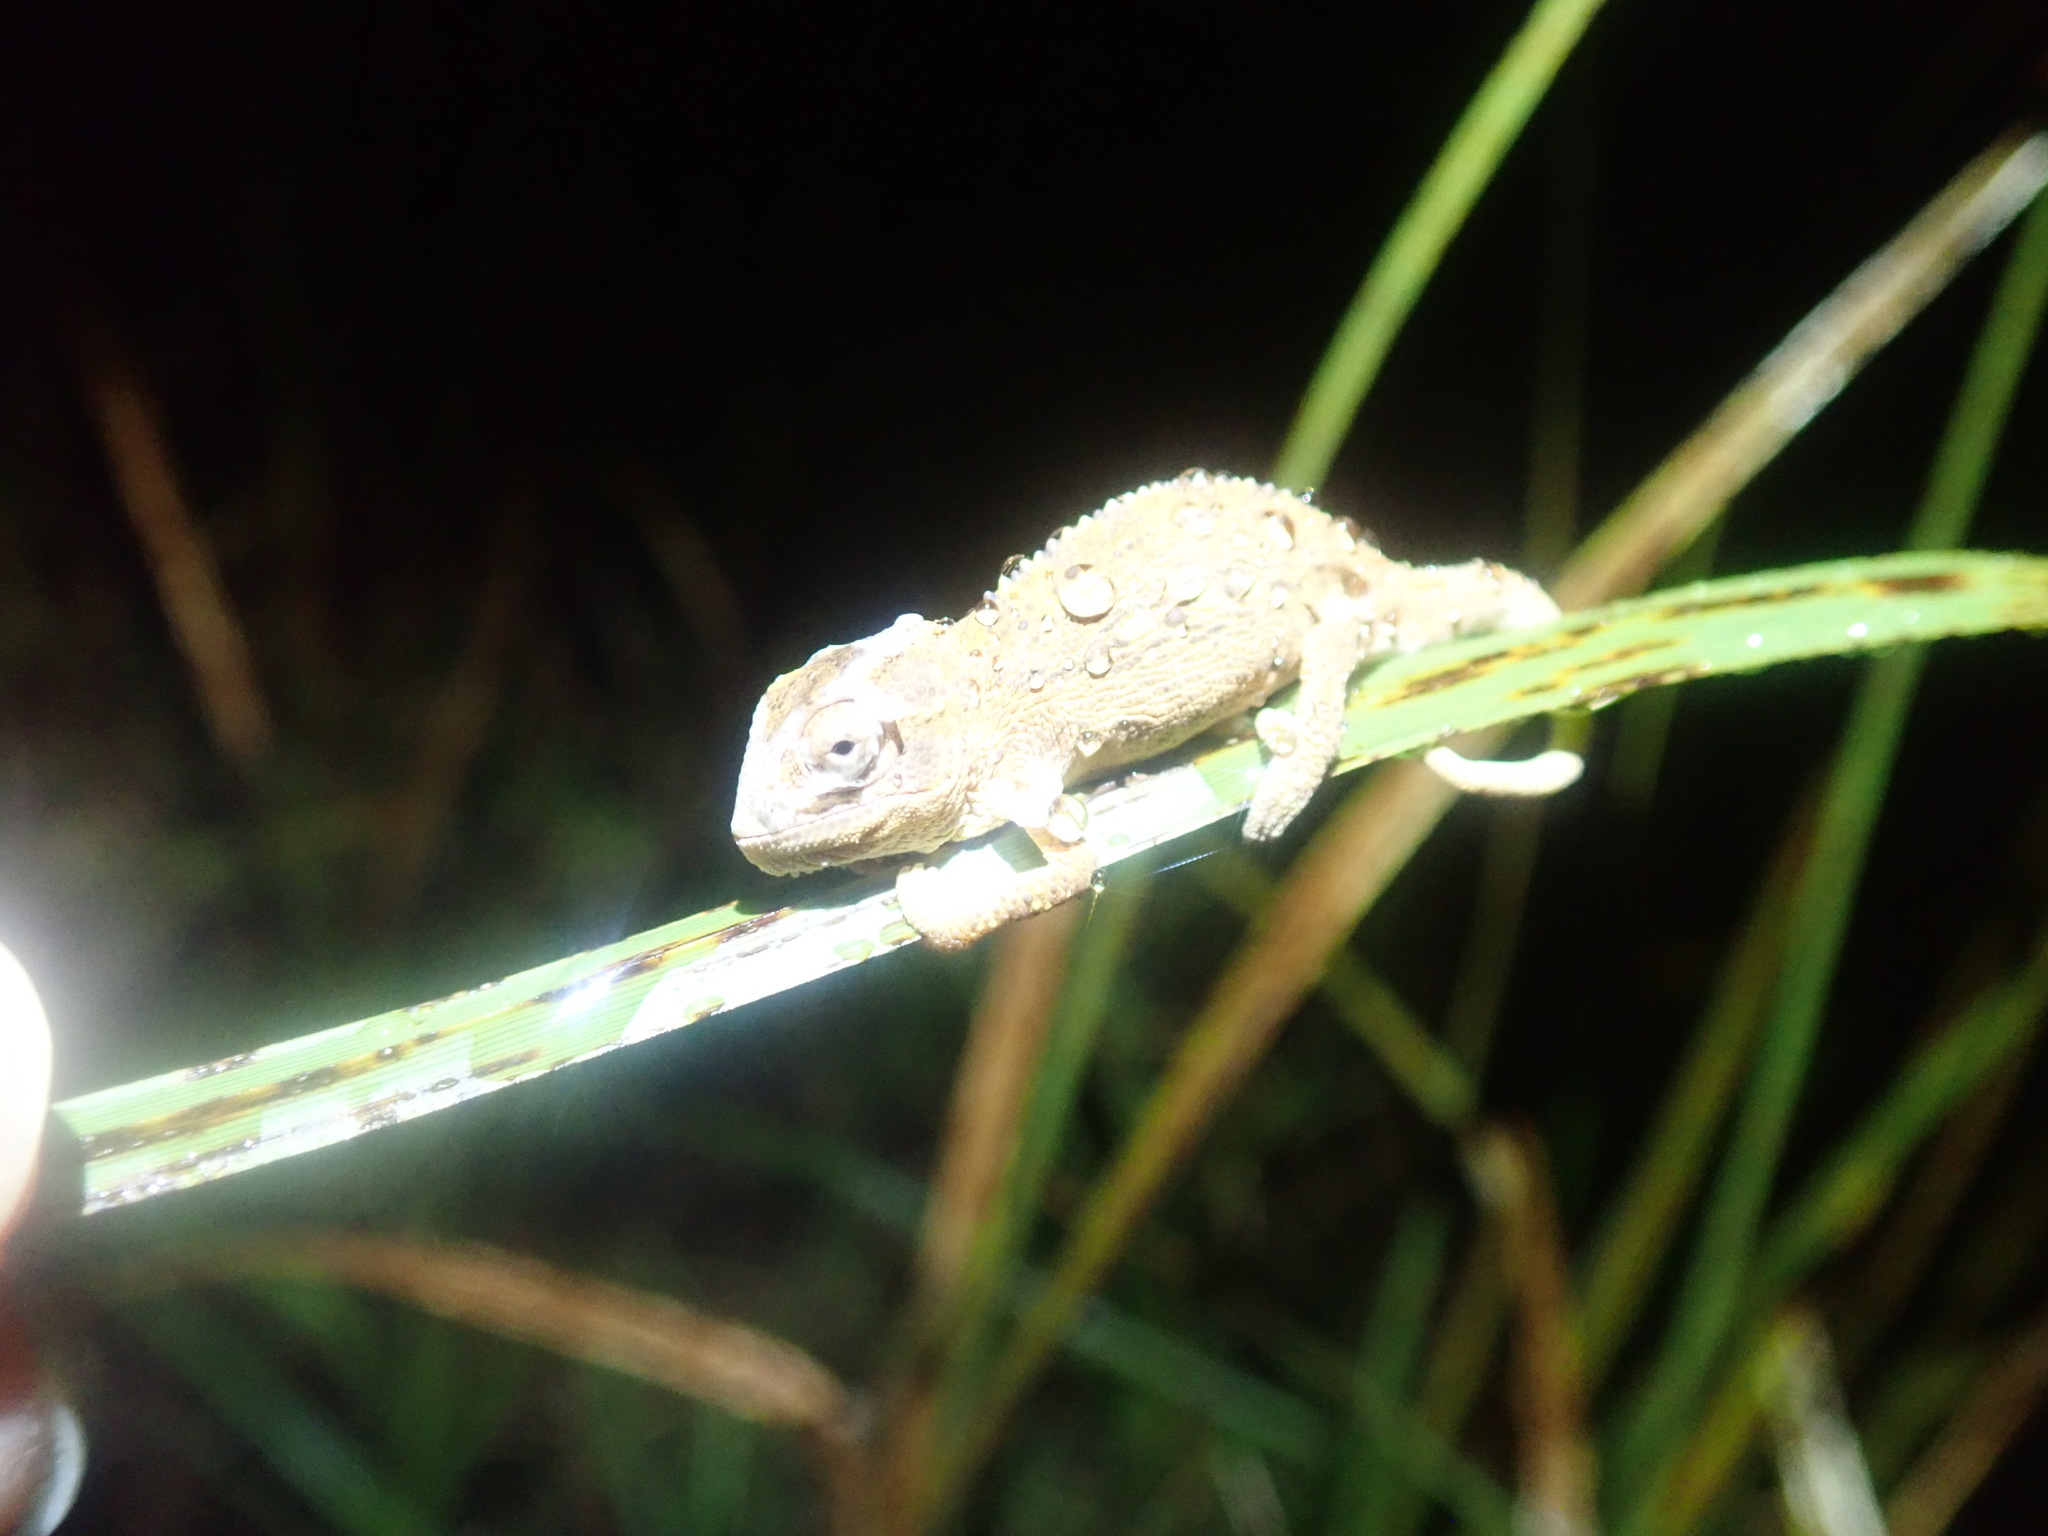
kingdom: Animalia
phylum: Chordata
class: Squamata
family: Chamaeleonidae
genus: Bradypodion
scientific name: Bradypodion pumilum
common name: Cape dwarf chameleon
